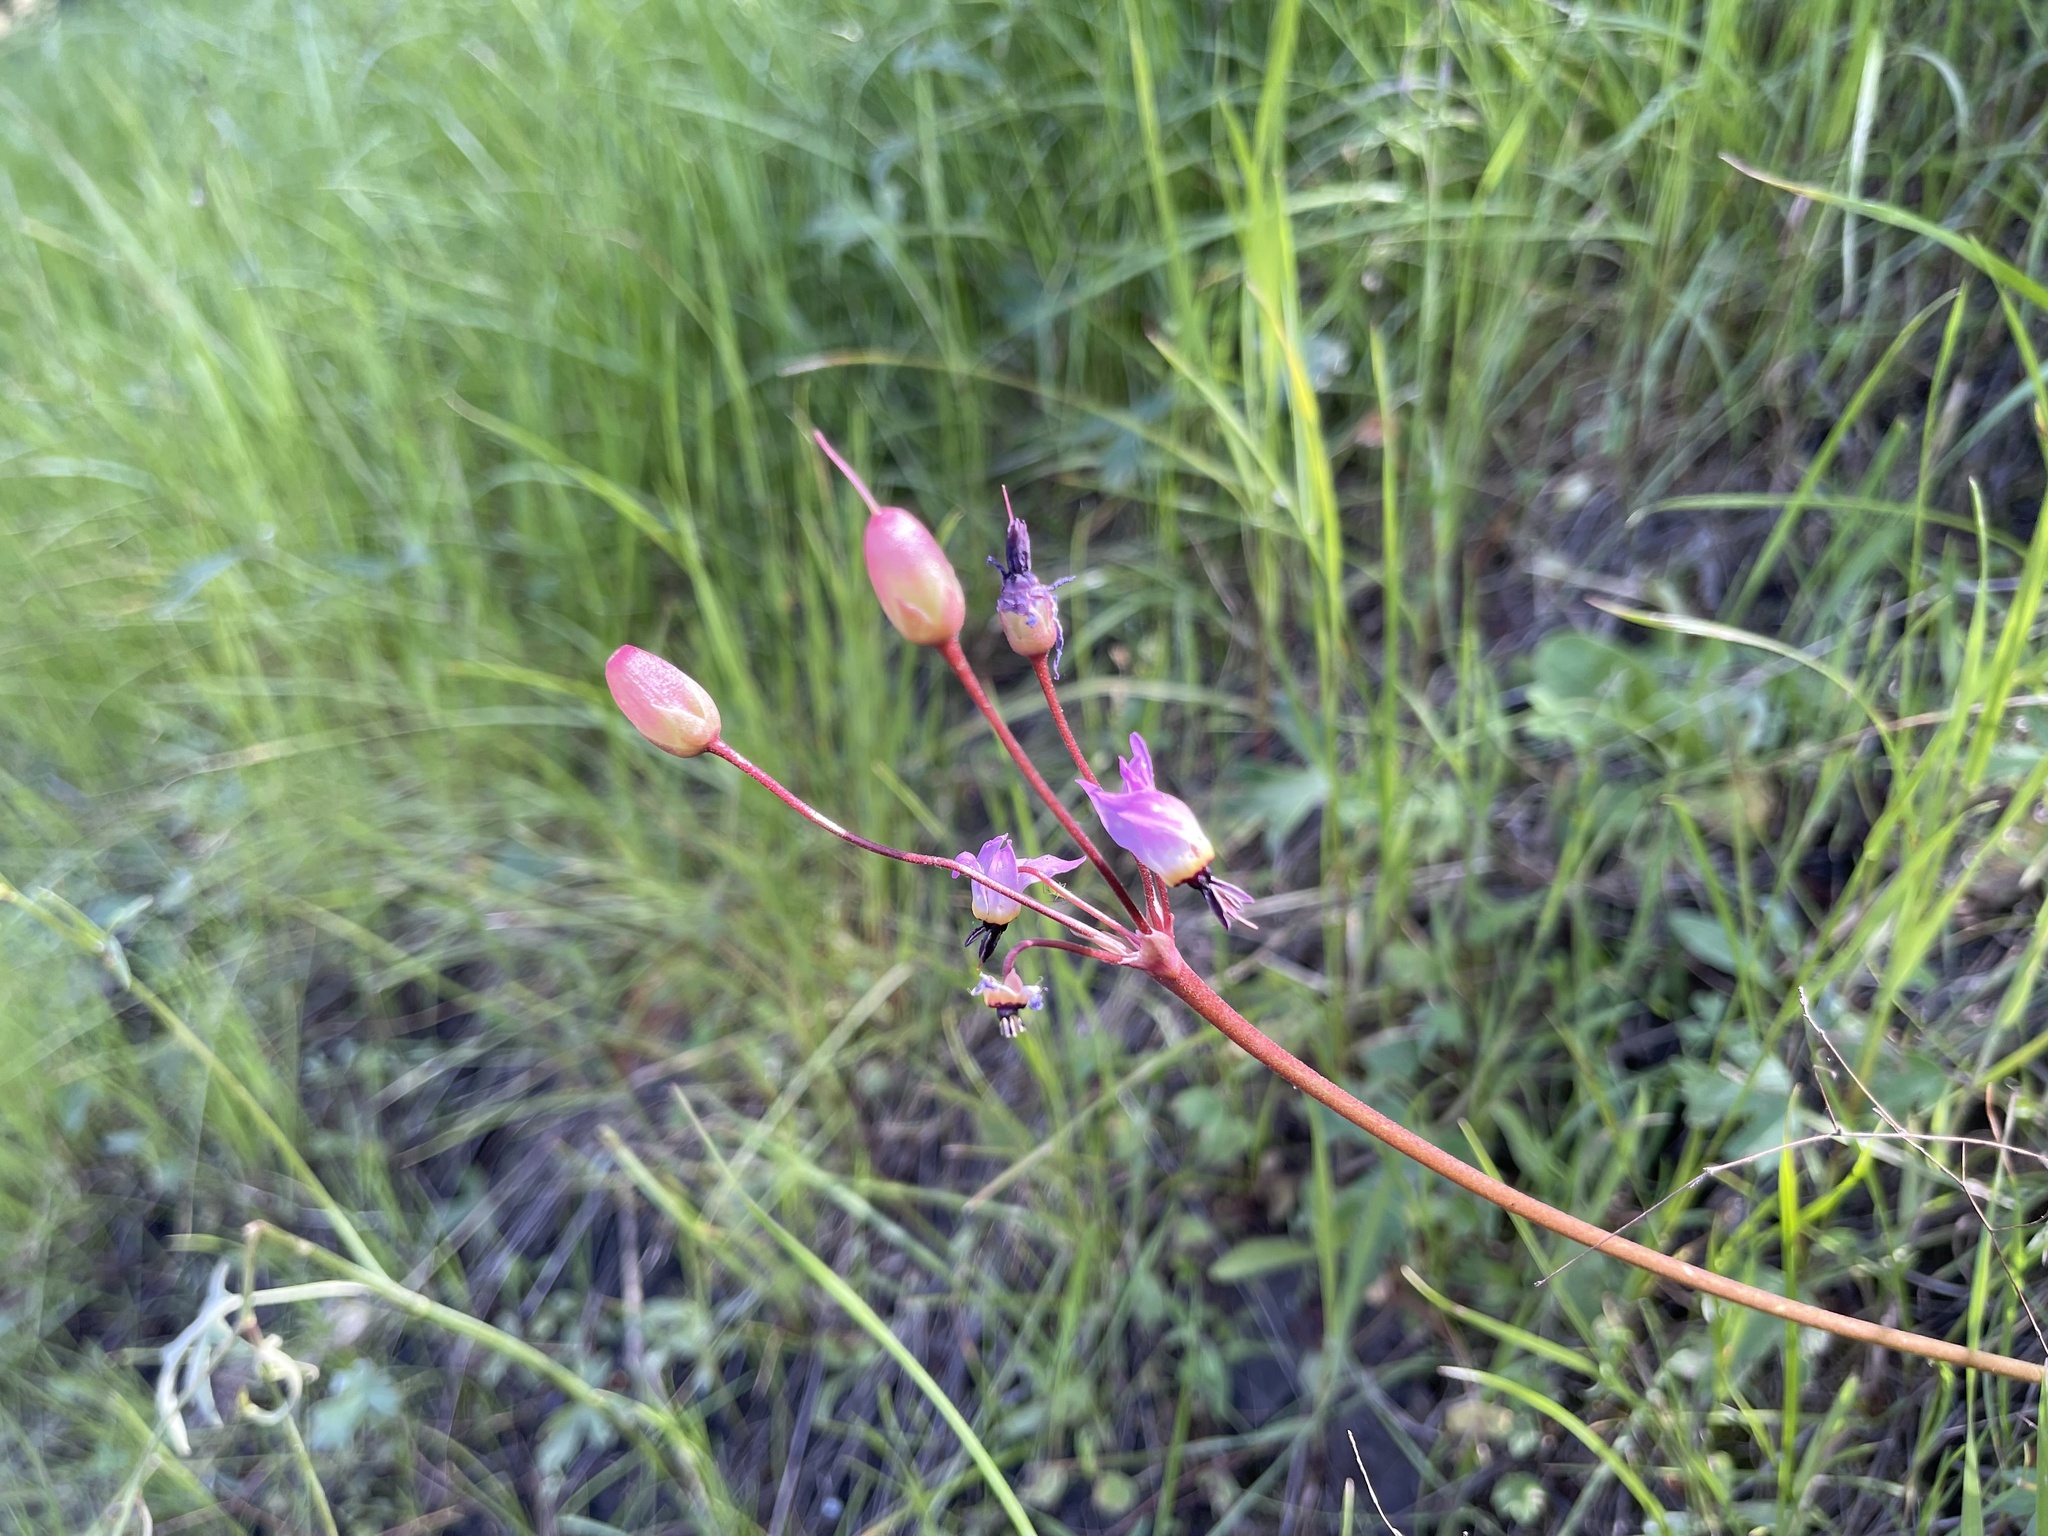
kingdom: Plantae
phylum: Tracheophyta
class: Magnoliopsida
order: Ericales
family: Primulaceae
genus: Dodecatheon
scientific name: Dodecatheon hendersonii
